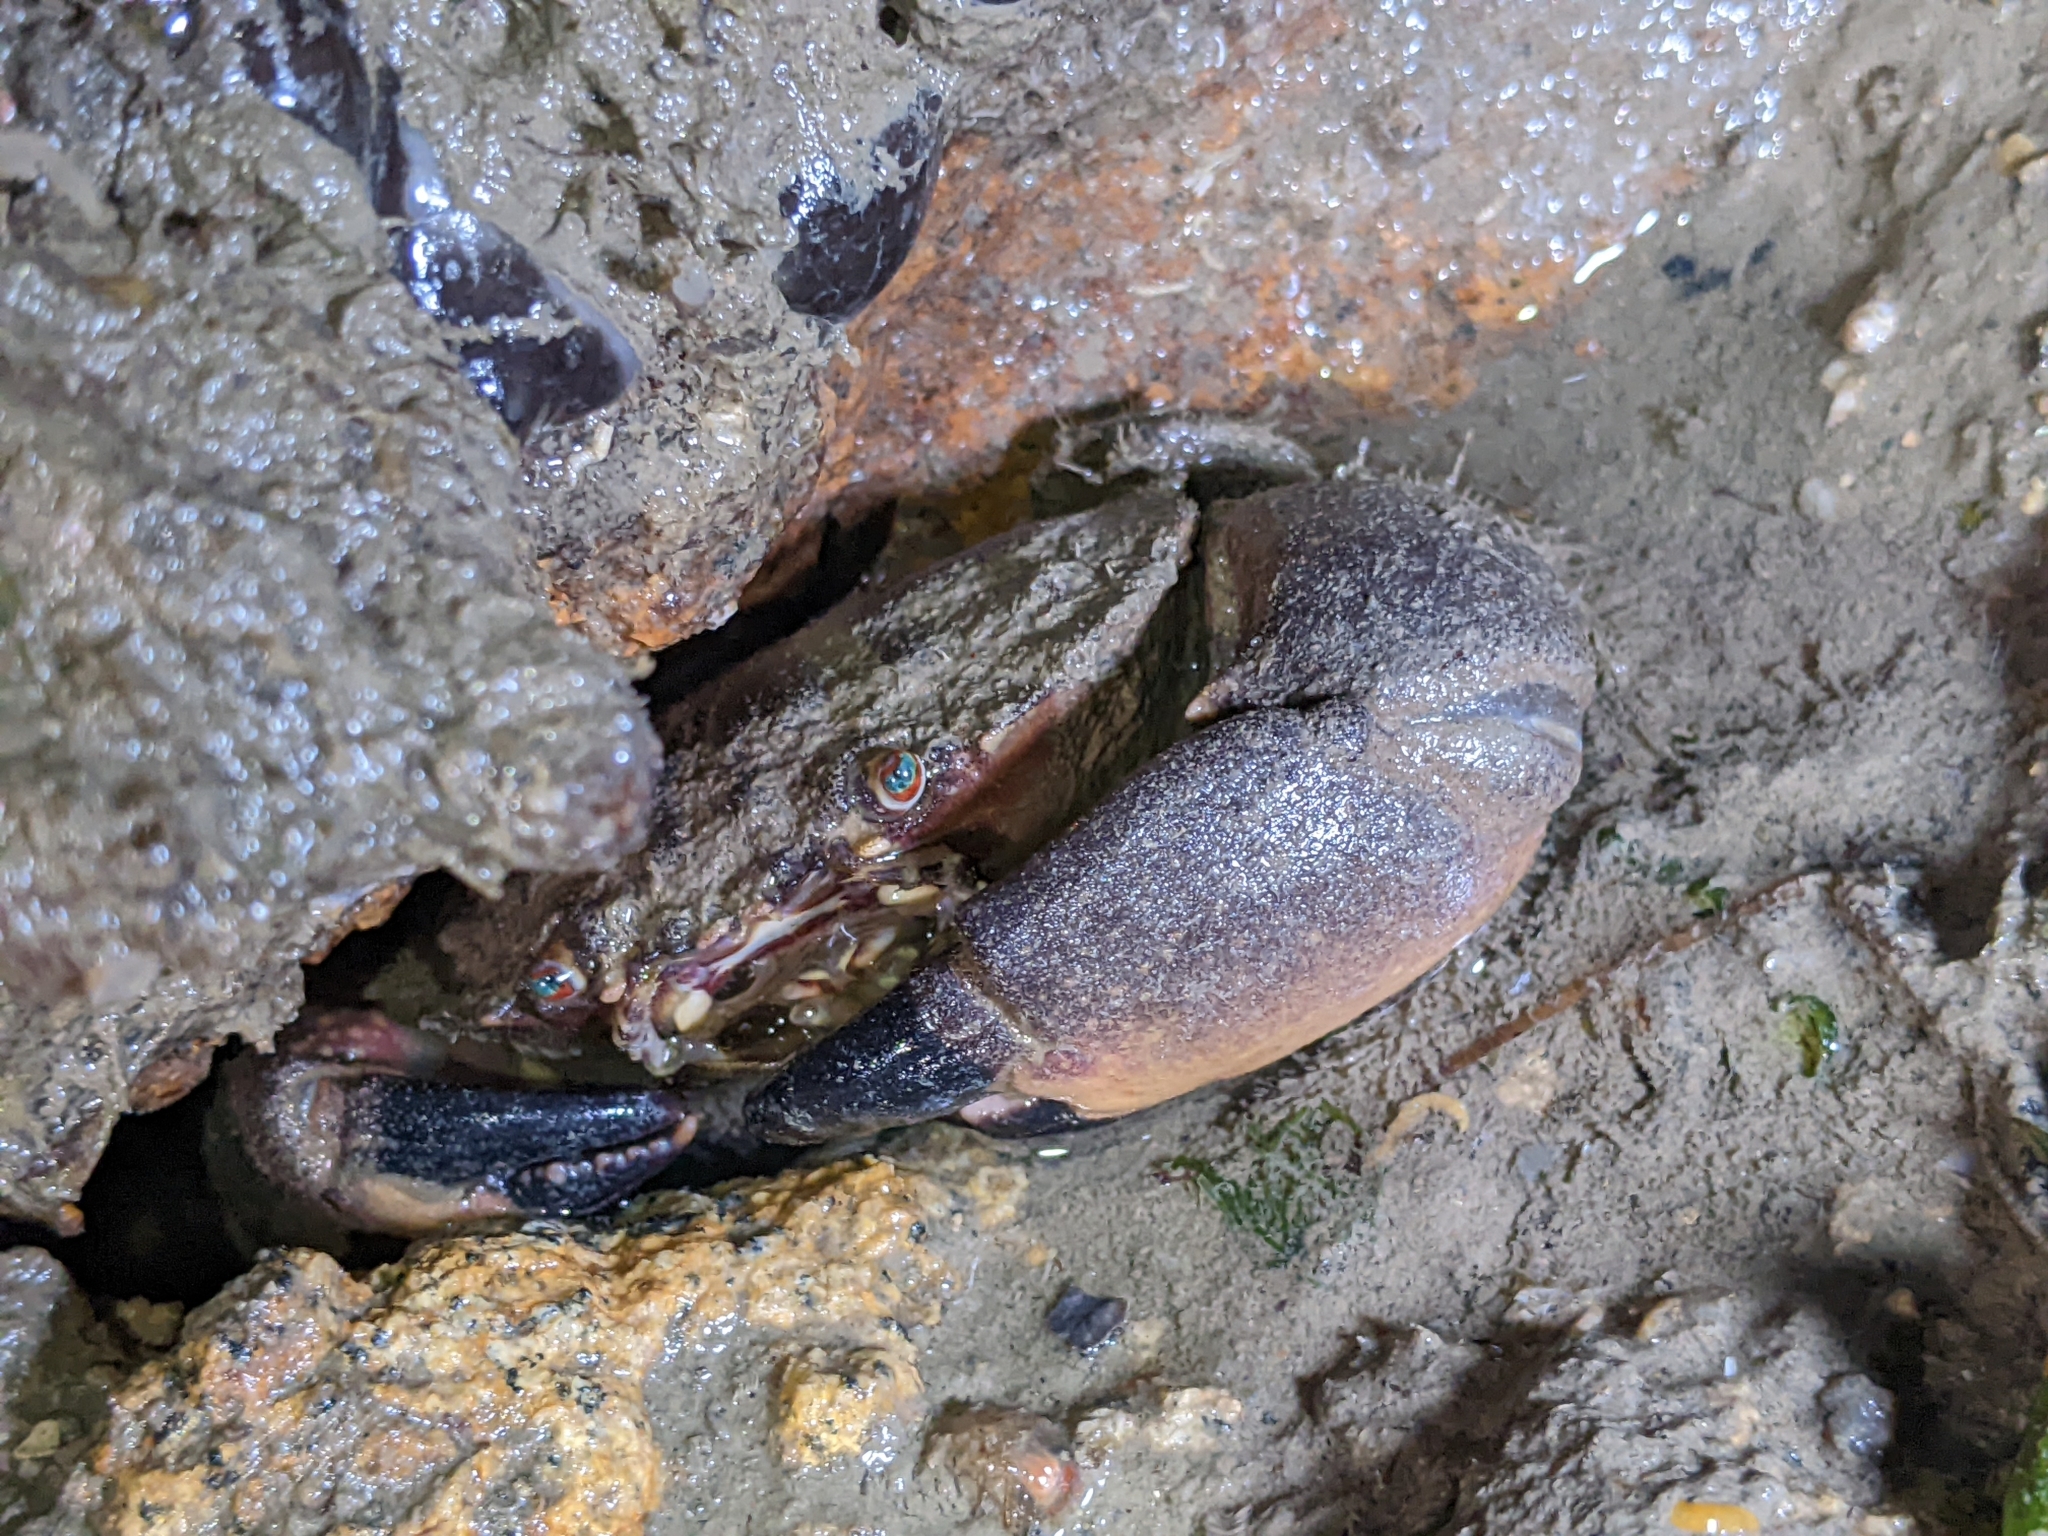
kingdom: Animalia
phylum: Arthropoda
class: Malacostraca
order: Decapoda
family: Menippidae
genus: Myomenippe
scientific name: Myomenippe hardwickii
